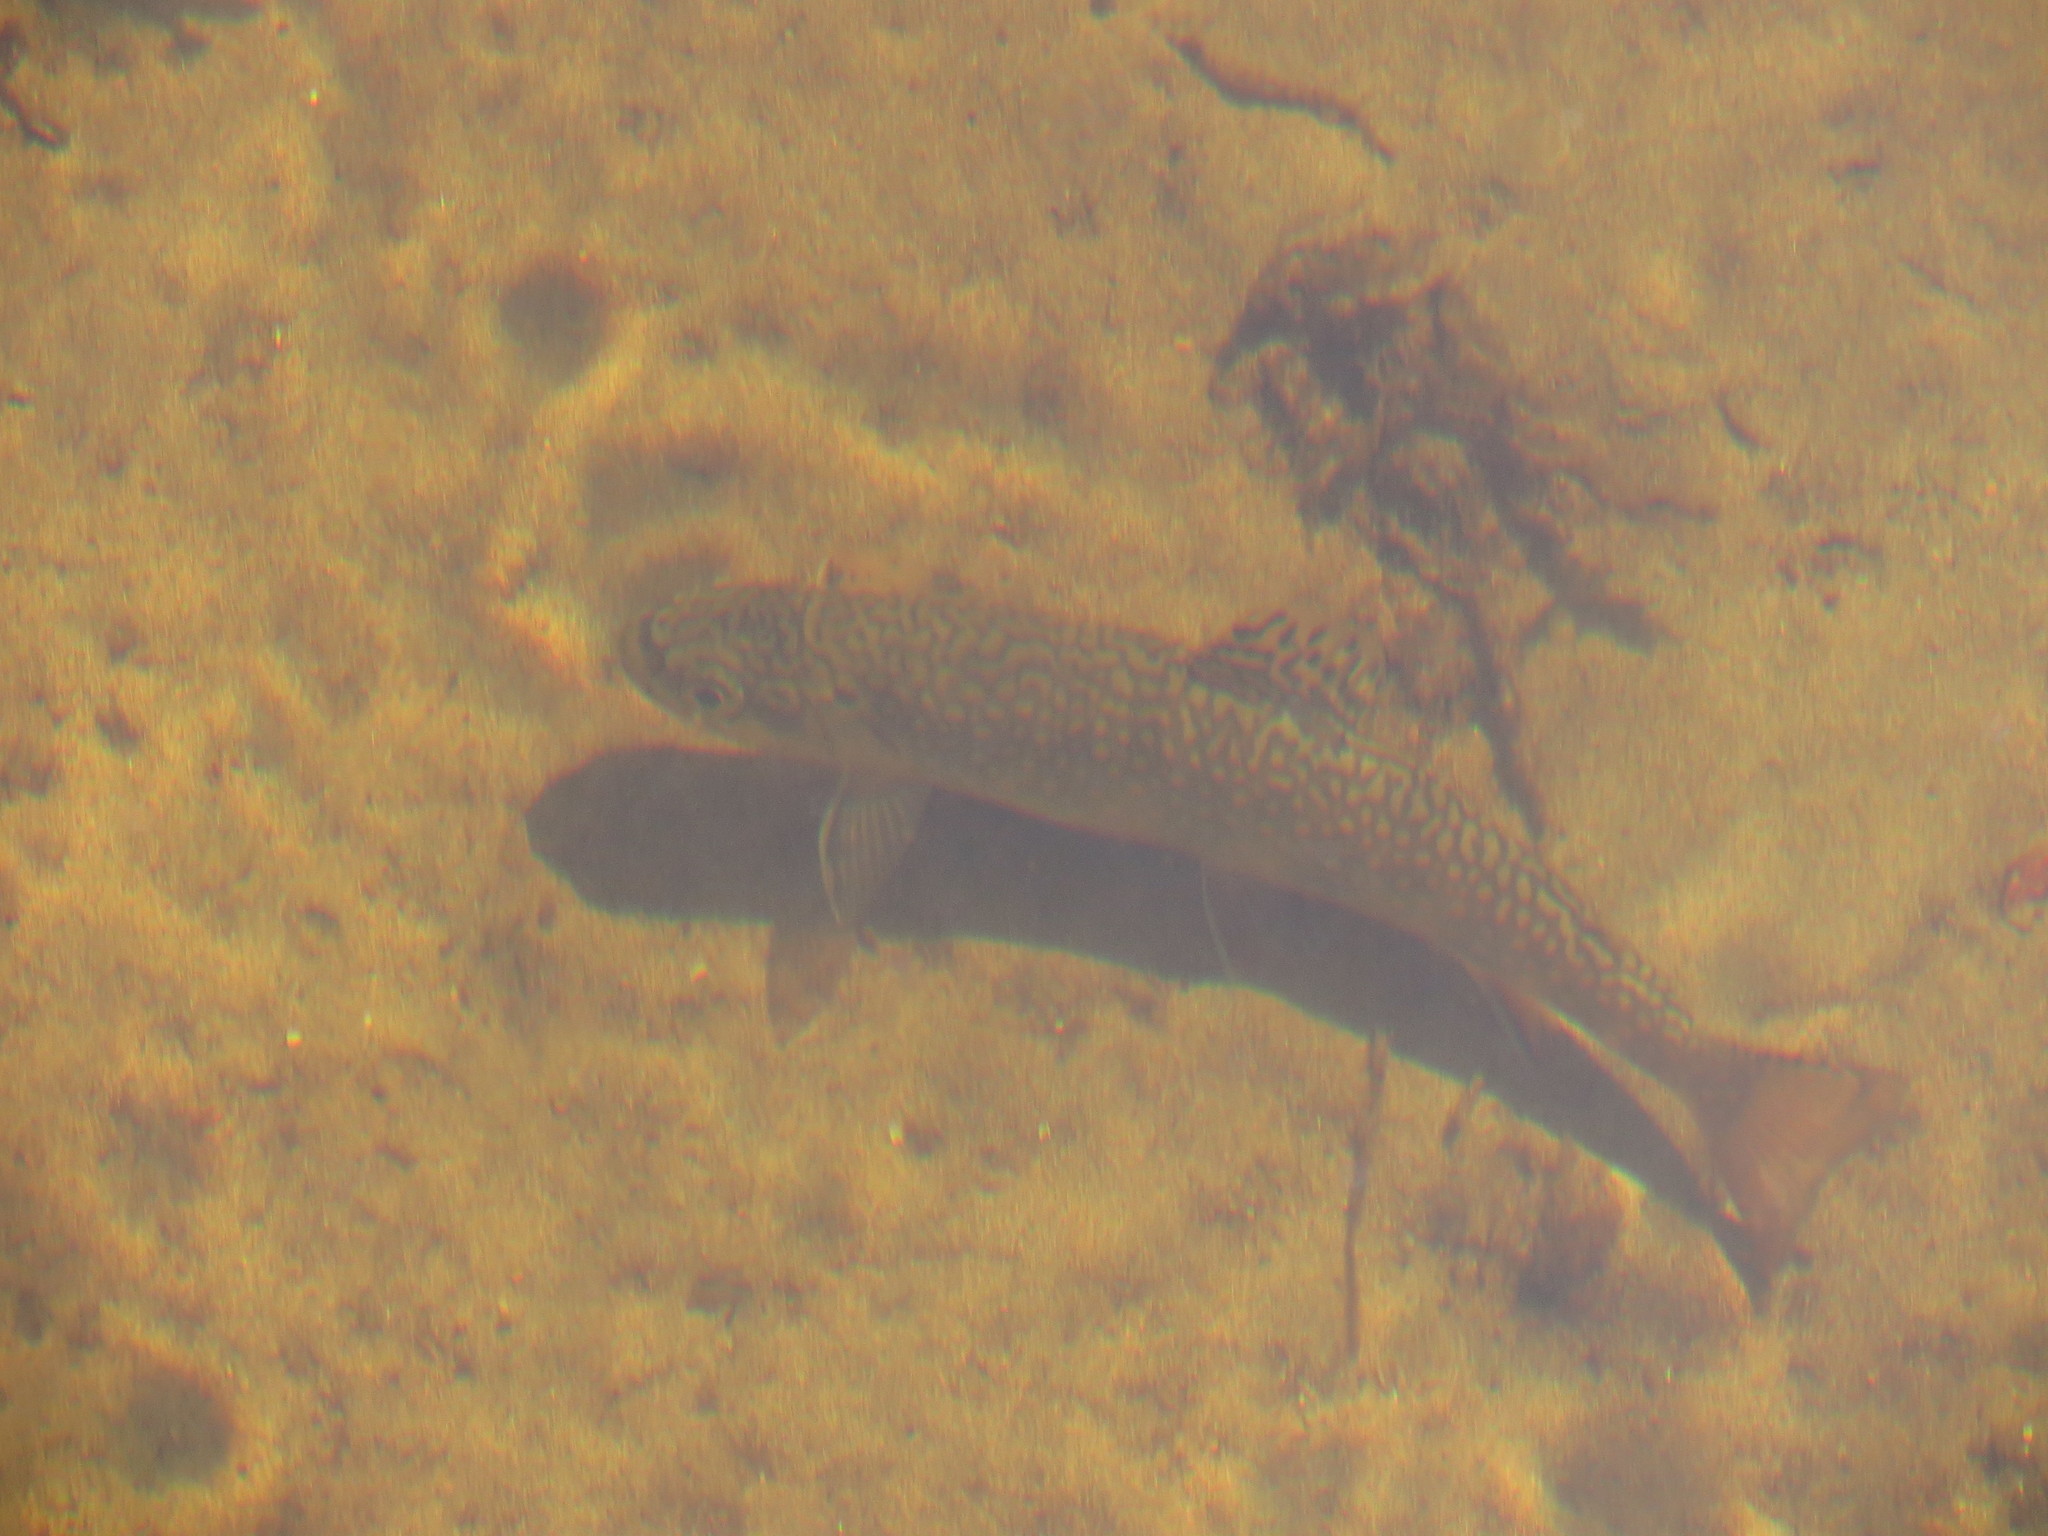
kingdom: Animalia
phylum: Chordata
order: Salmoniformes
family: Salmonidae
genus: Salvelinus
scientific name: Salvelinus fontinalis
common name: Brook trout
